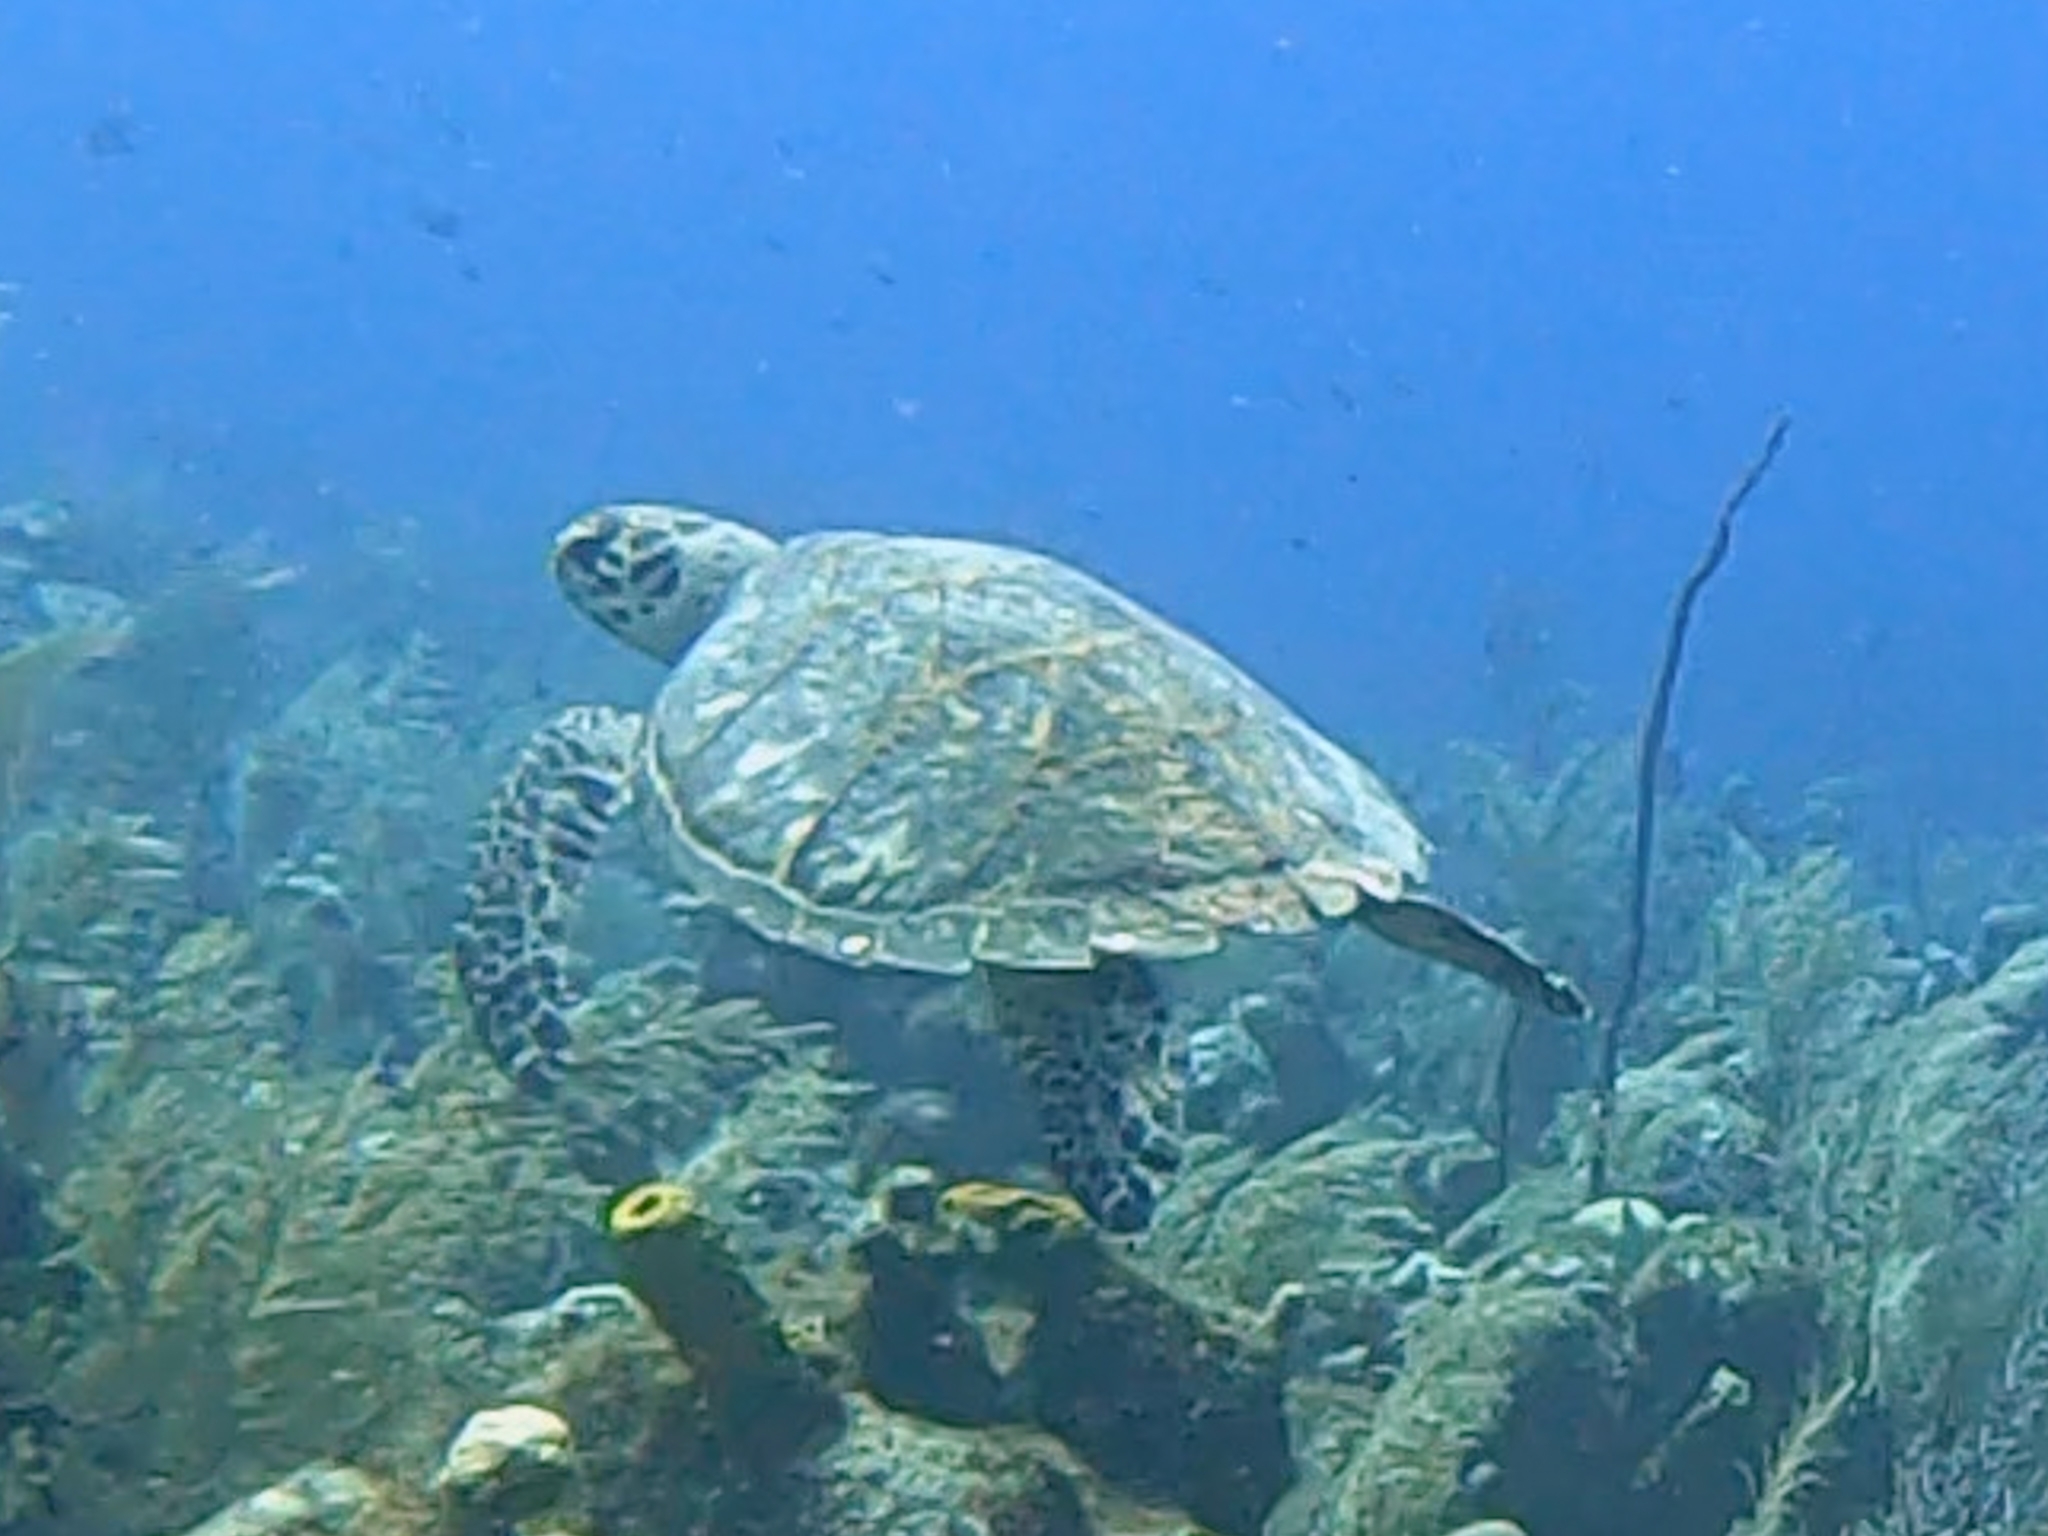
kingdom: Animalia
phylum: Chordata
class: Testudines
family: Cheloniidae
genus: Eretmochelys
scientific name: Eretmochelys imbricata
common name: Hawksbill turtle
